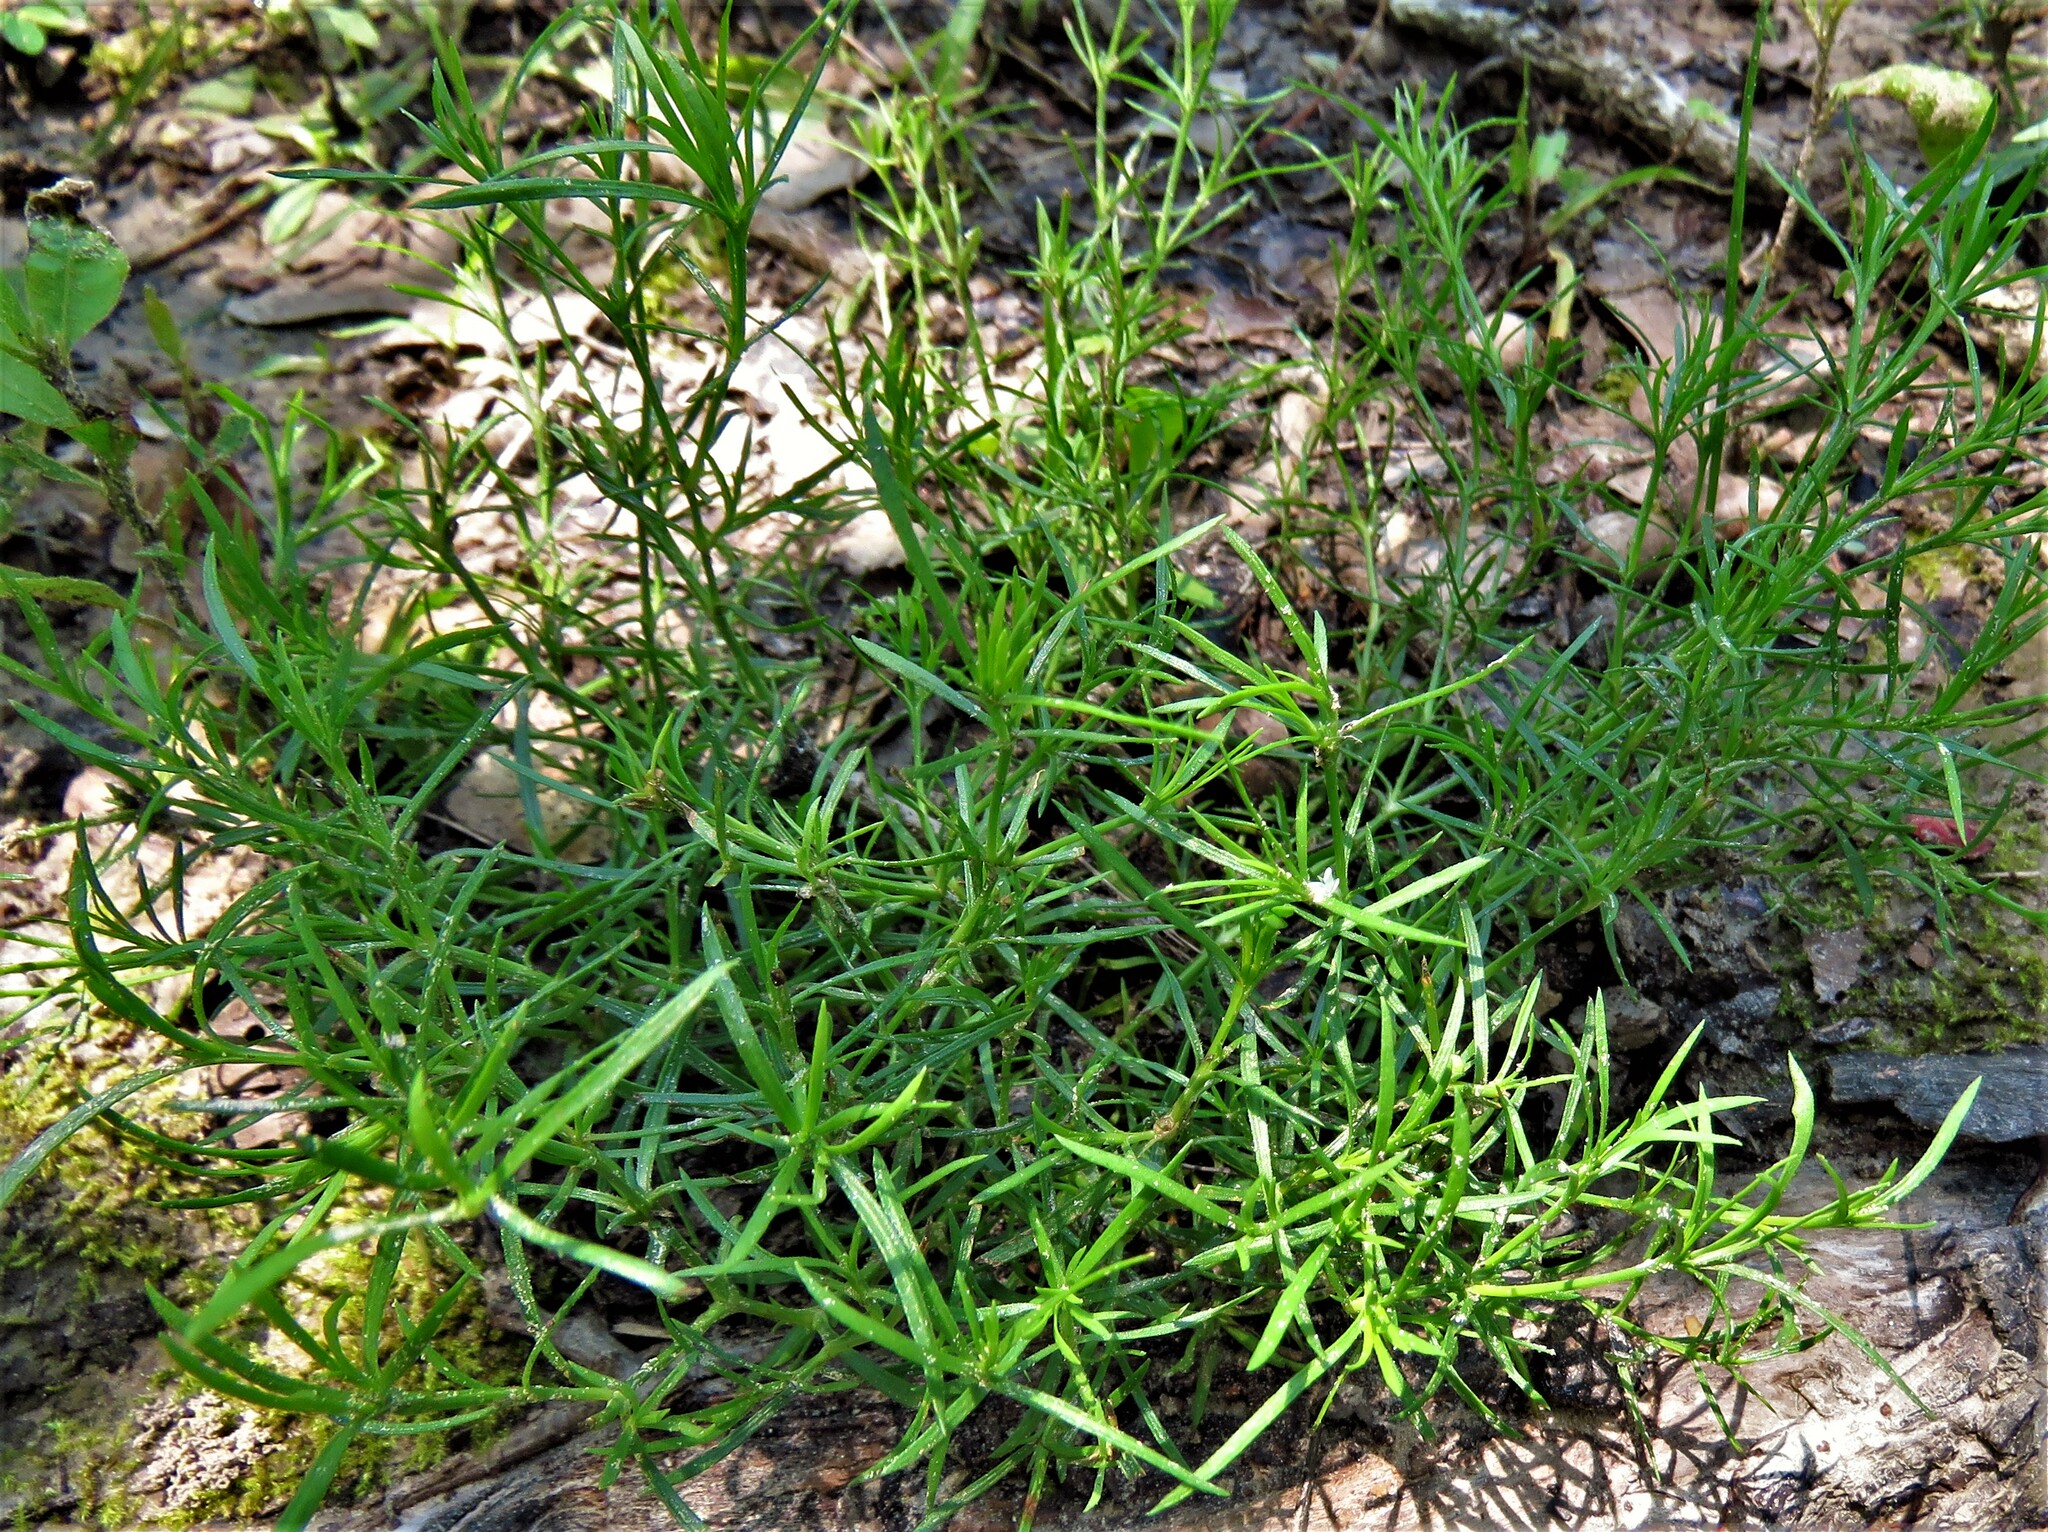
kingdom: Plantae
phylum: Tracheophyta
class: Magnoliopsida
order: Lamiales
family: Tetrachondraceae
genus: Polypremum
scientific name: Polypremum procumbens
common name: Juniper-leaf
